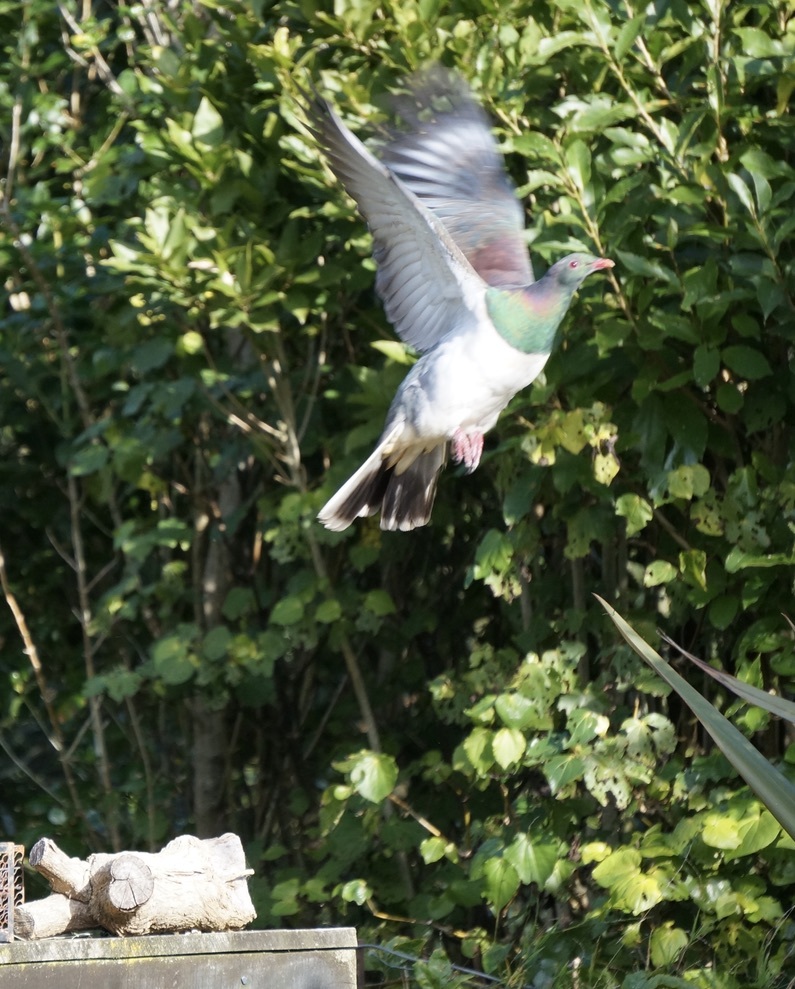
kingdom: Animalia
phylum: Chordata
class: Aves
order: Columbiformes
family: Columbidae
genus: Hemiphaga
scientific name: Hemiphaga novaeseelandiae
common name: New zealand pigeon
